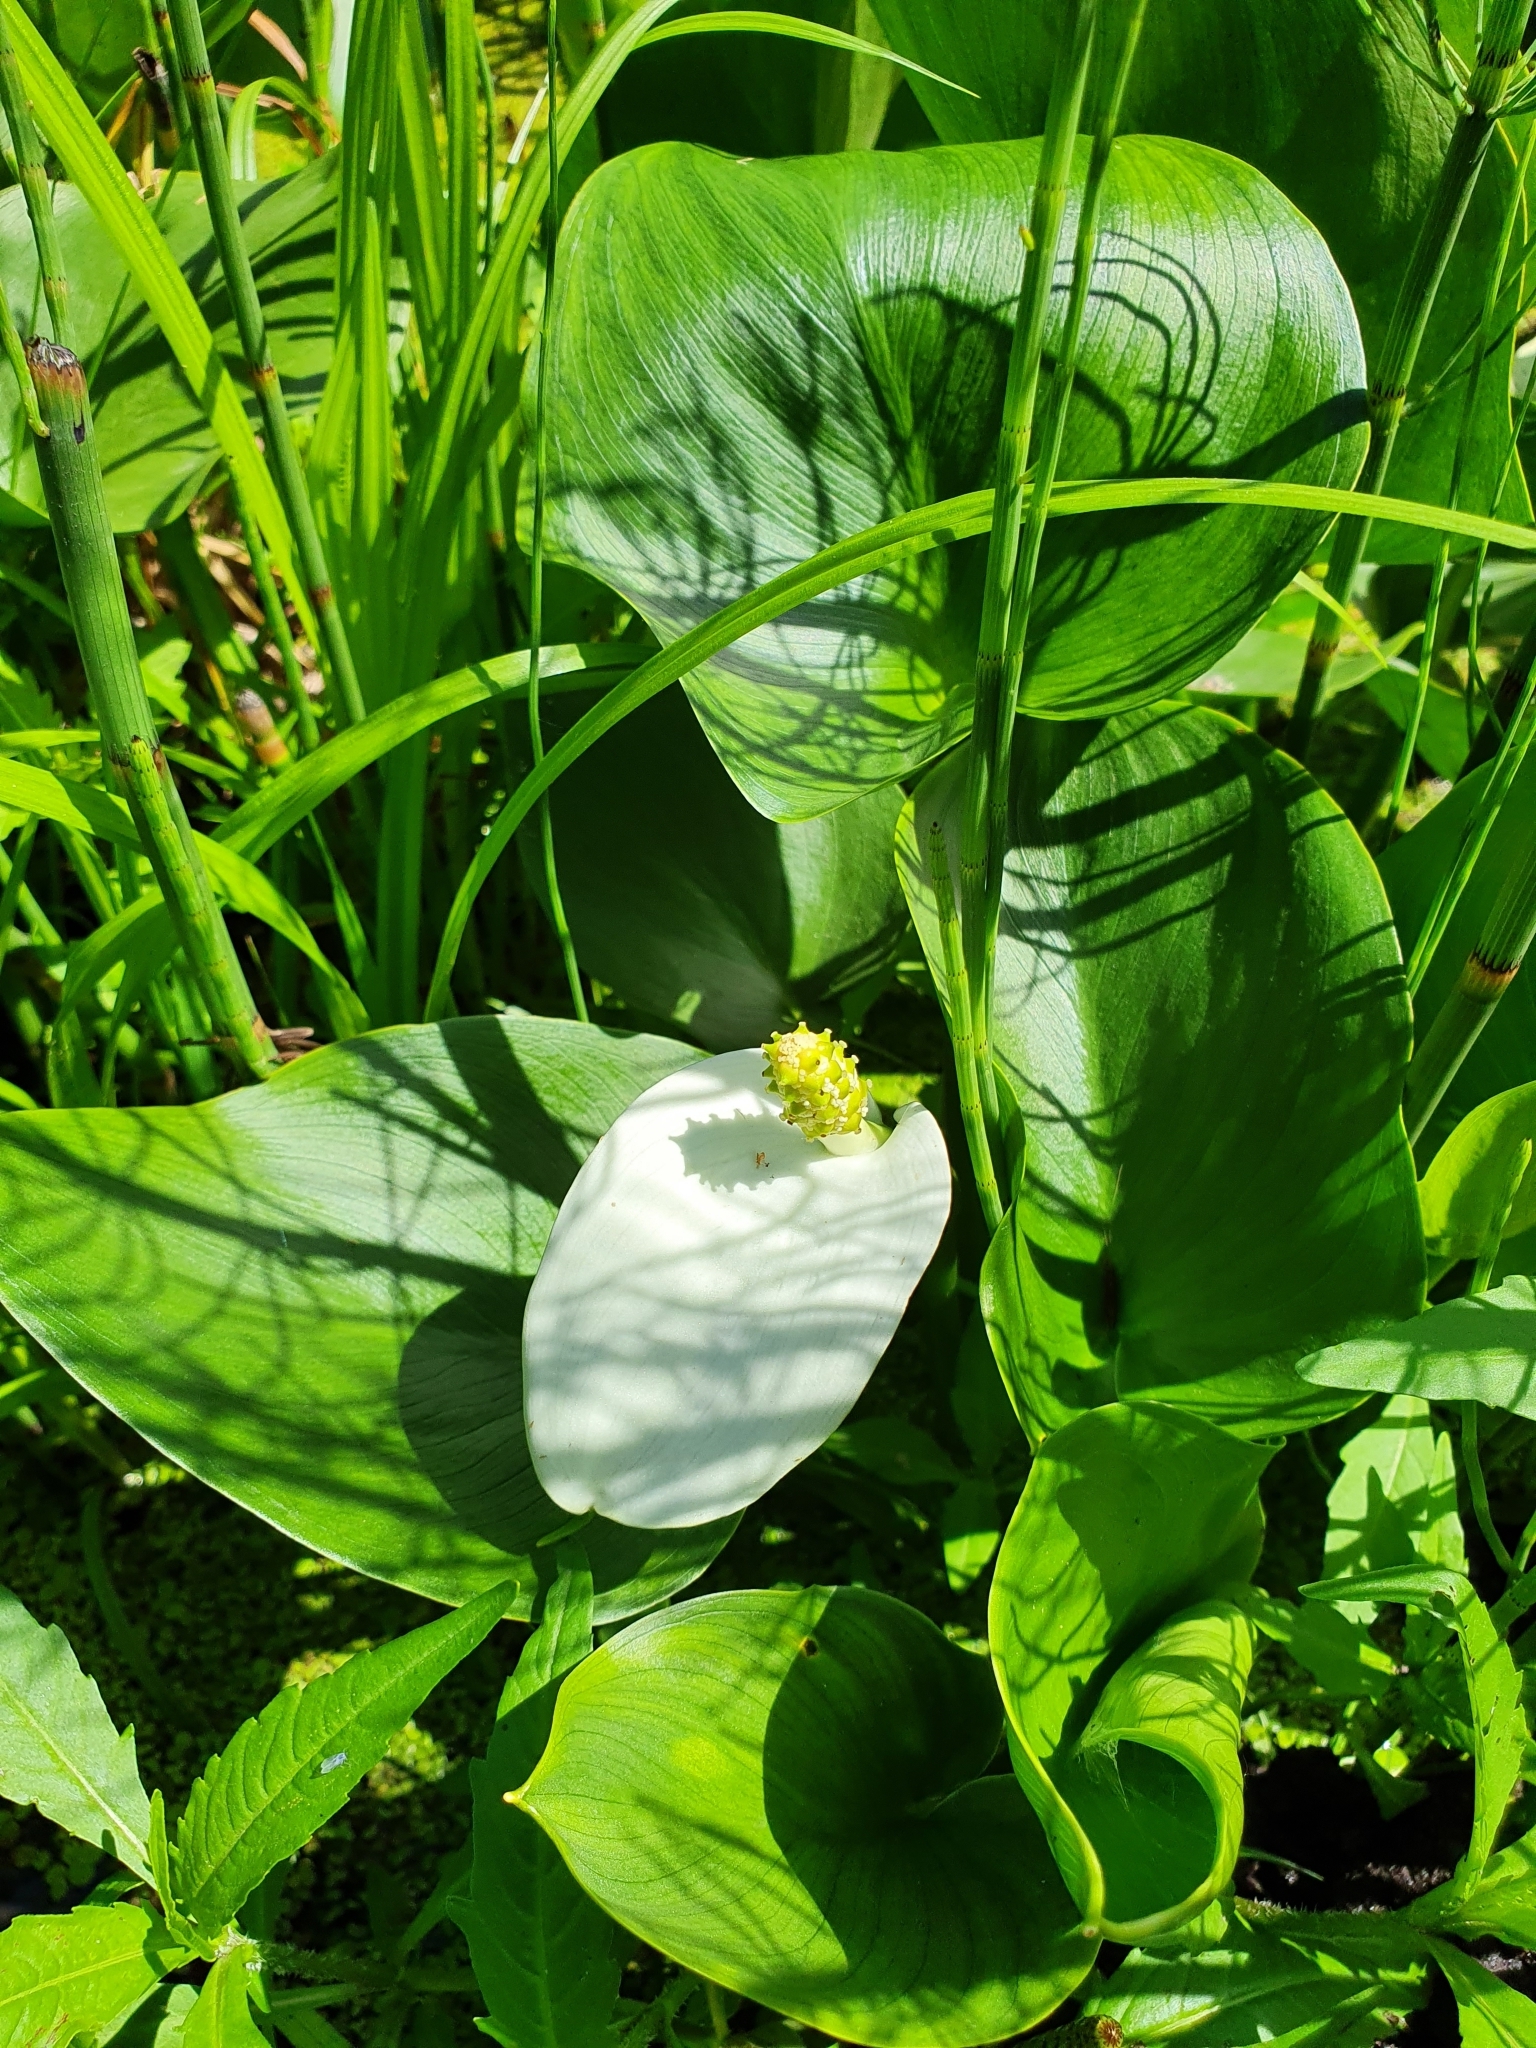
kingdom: Plantae
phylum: Tracheophyta
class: Liliopsida
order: Alismatales
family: Araceae
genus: Calla
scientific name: Calla palustris
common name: Bog arum
